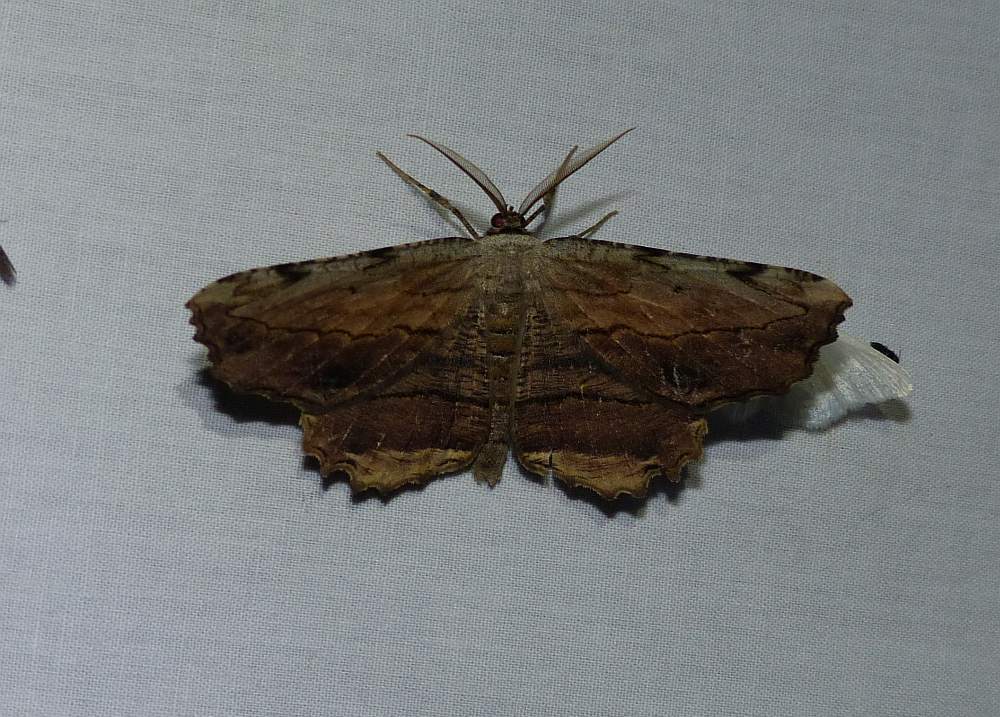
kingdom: Animalia
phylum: Arthropoda
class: Insecta
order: Lepidoptera
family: Geometridae
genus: Lytrosis
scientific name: Lytrosis unitaria
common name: Common lytrosis
